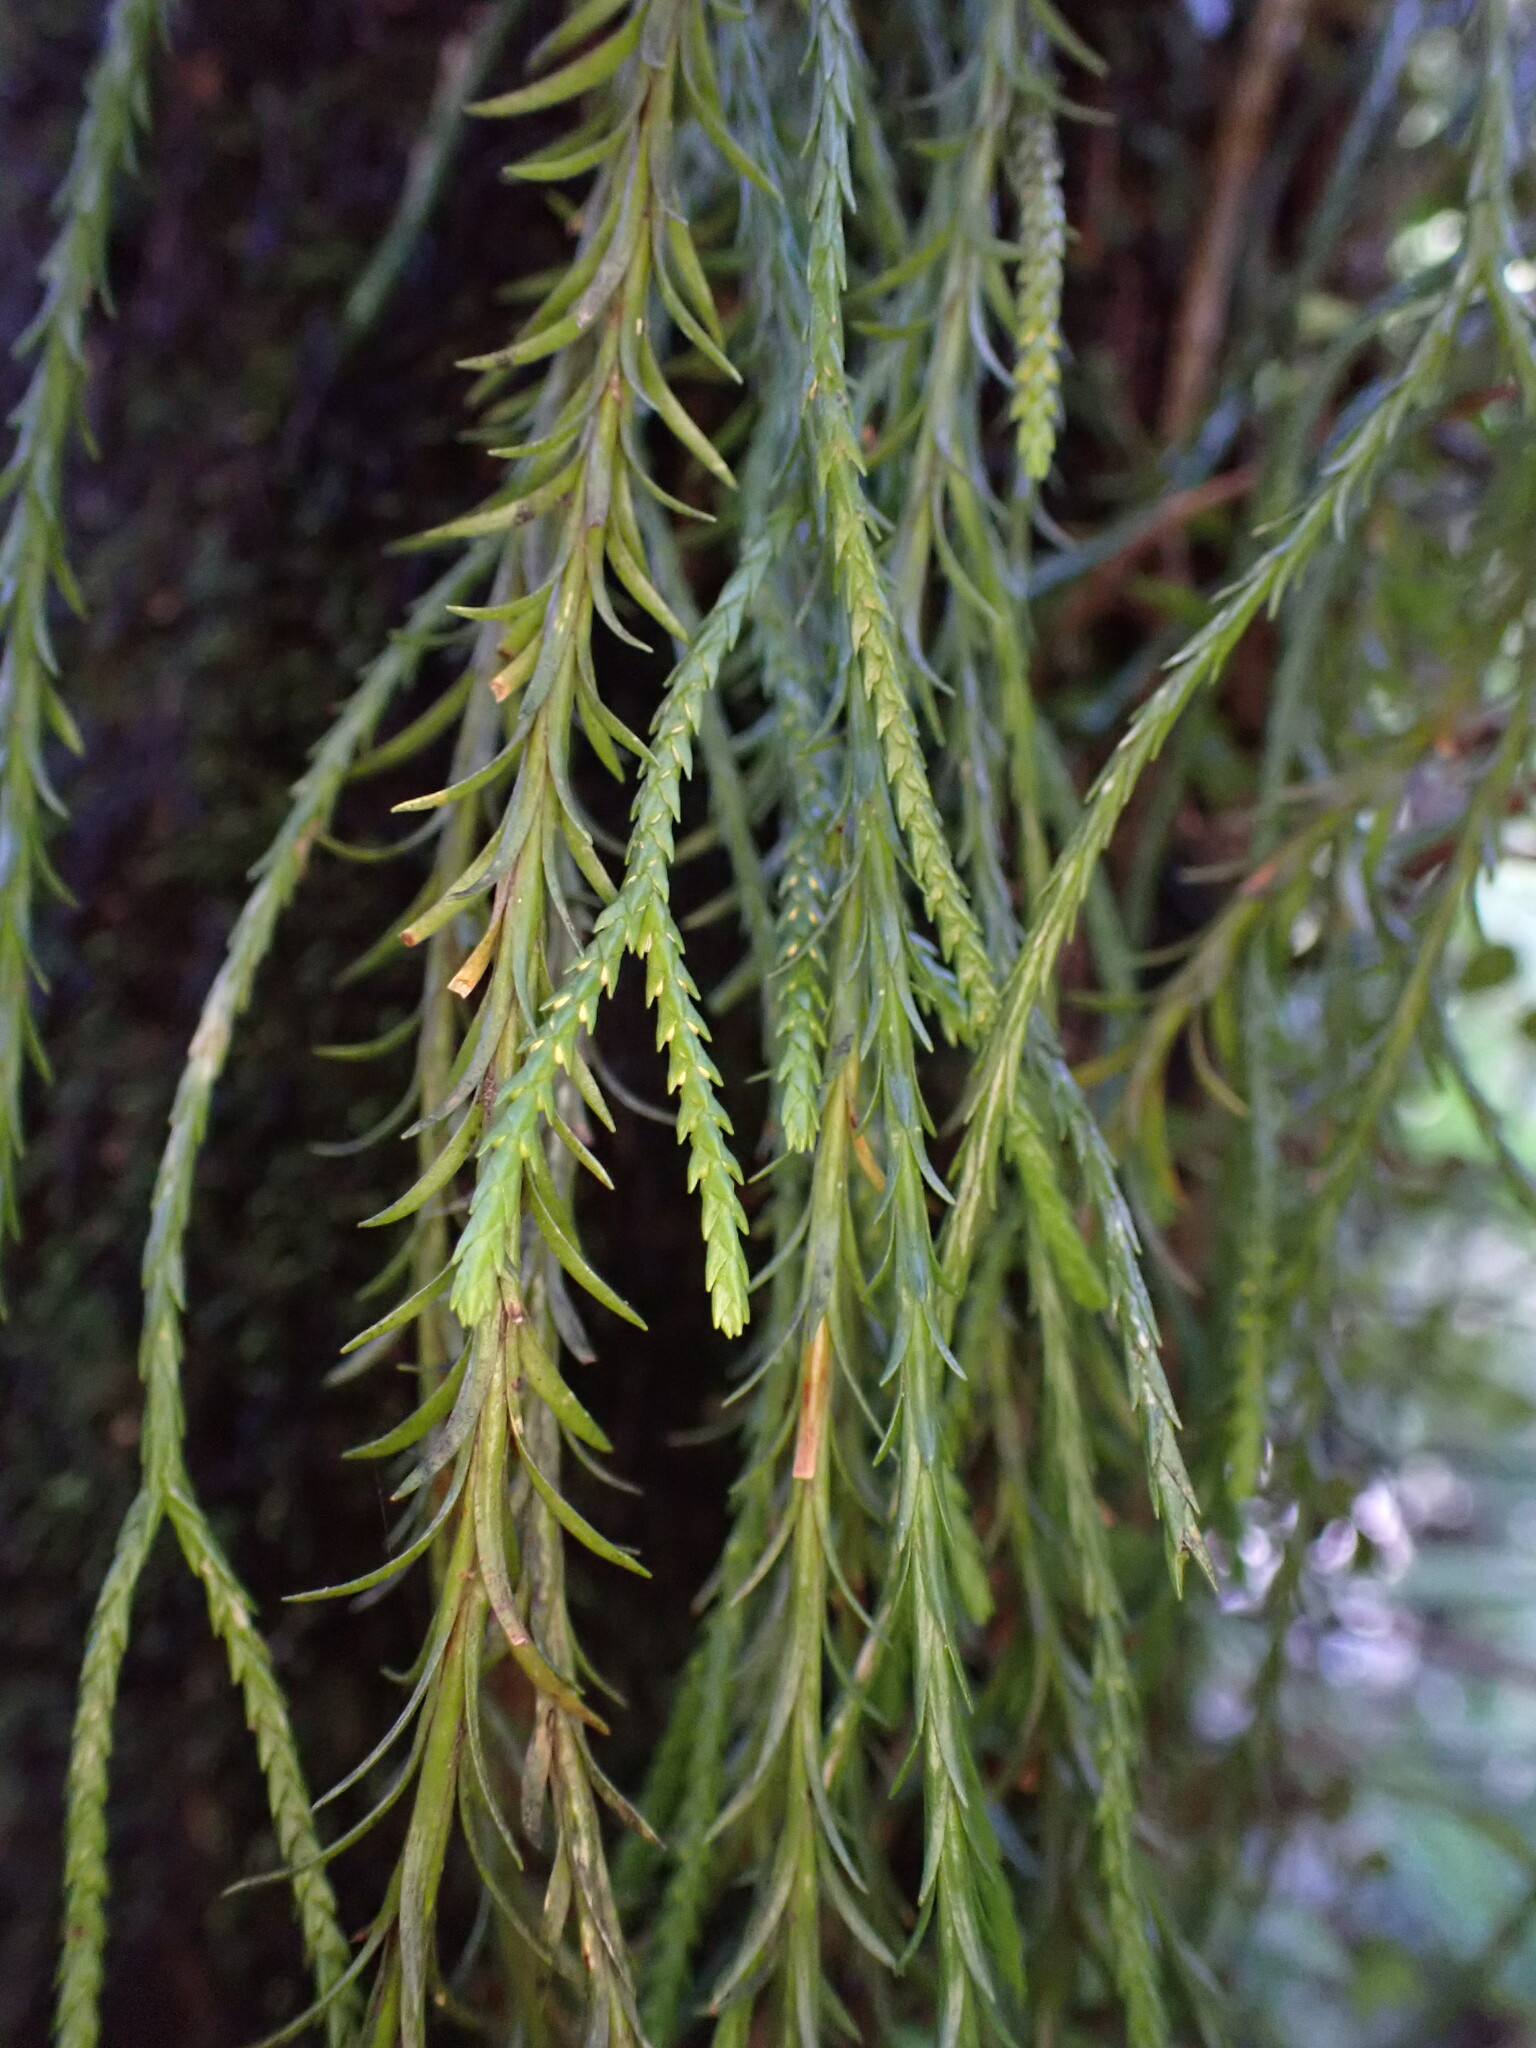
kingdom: Plantae
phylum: Tracheophyta
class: Lycopodiopsida
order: Lycopodiales
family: Lycopodiaceae
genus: Phlegmariurus
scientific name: Phlegmariurus billardierei
